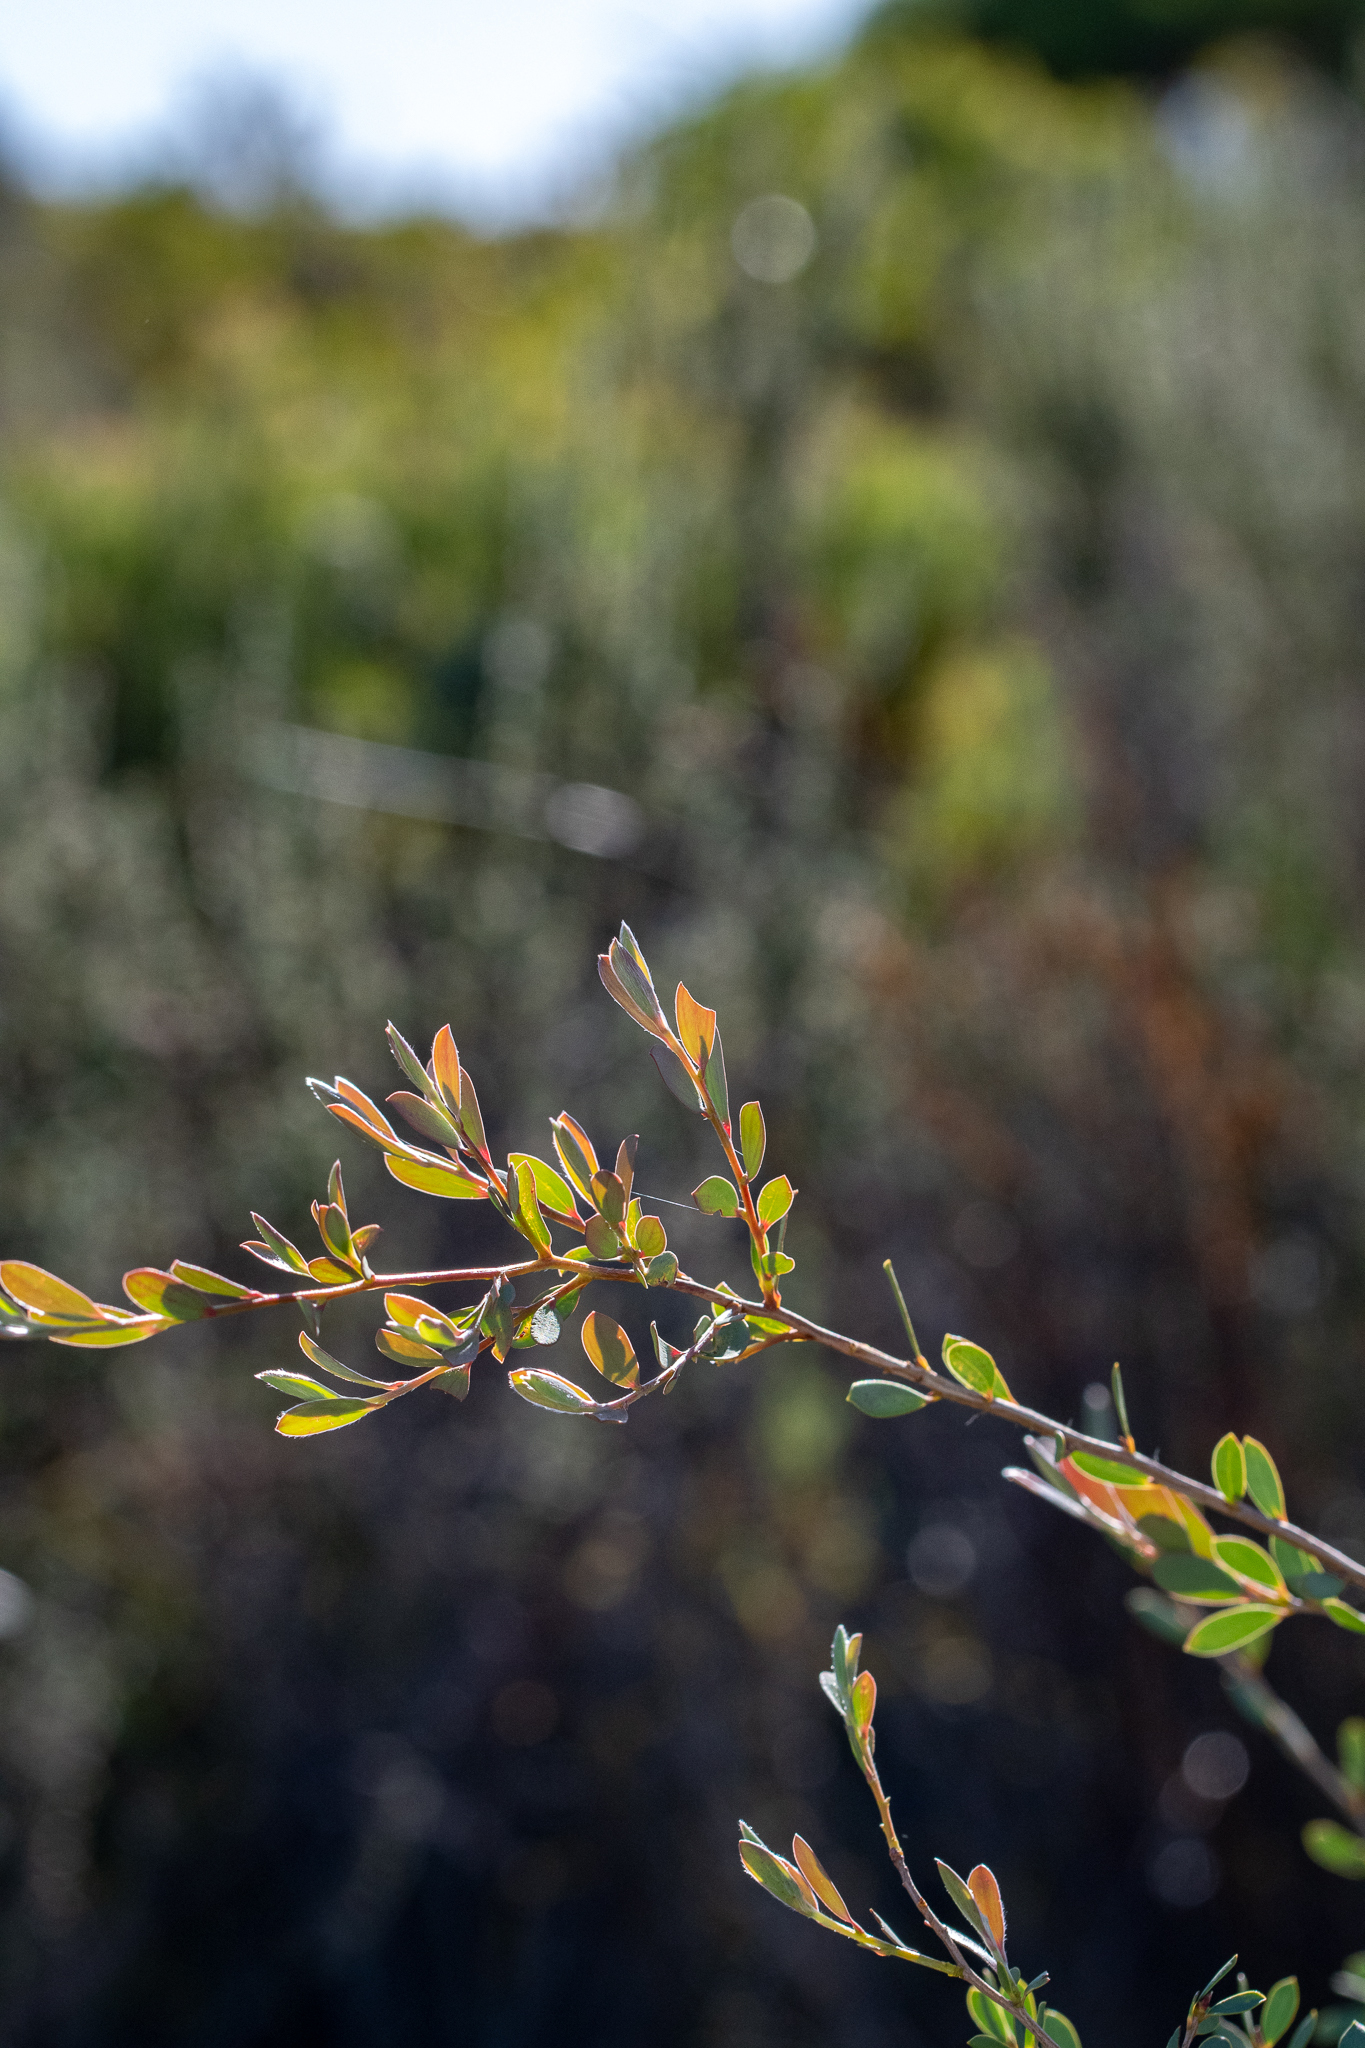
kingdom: Plantae
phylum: Tracheophyta
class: Magnoliopsida
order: Myrtales
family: Myrtaceae
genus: Leptospermum
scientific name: Leptospermum laevigatum
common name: Australian teatree
